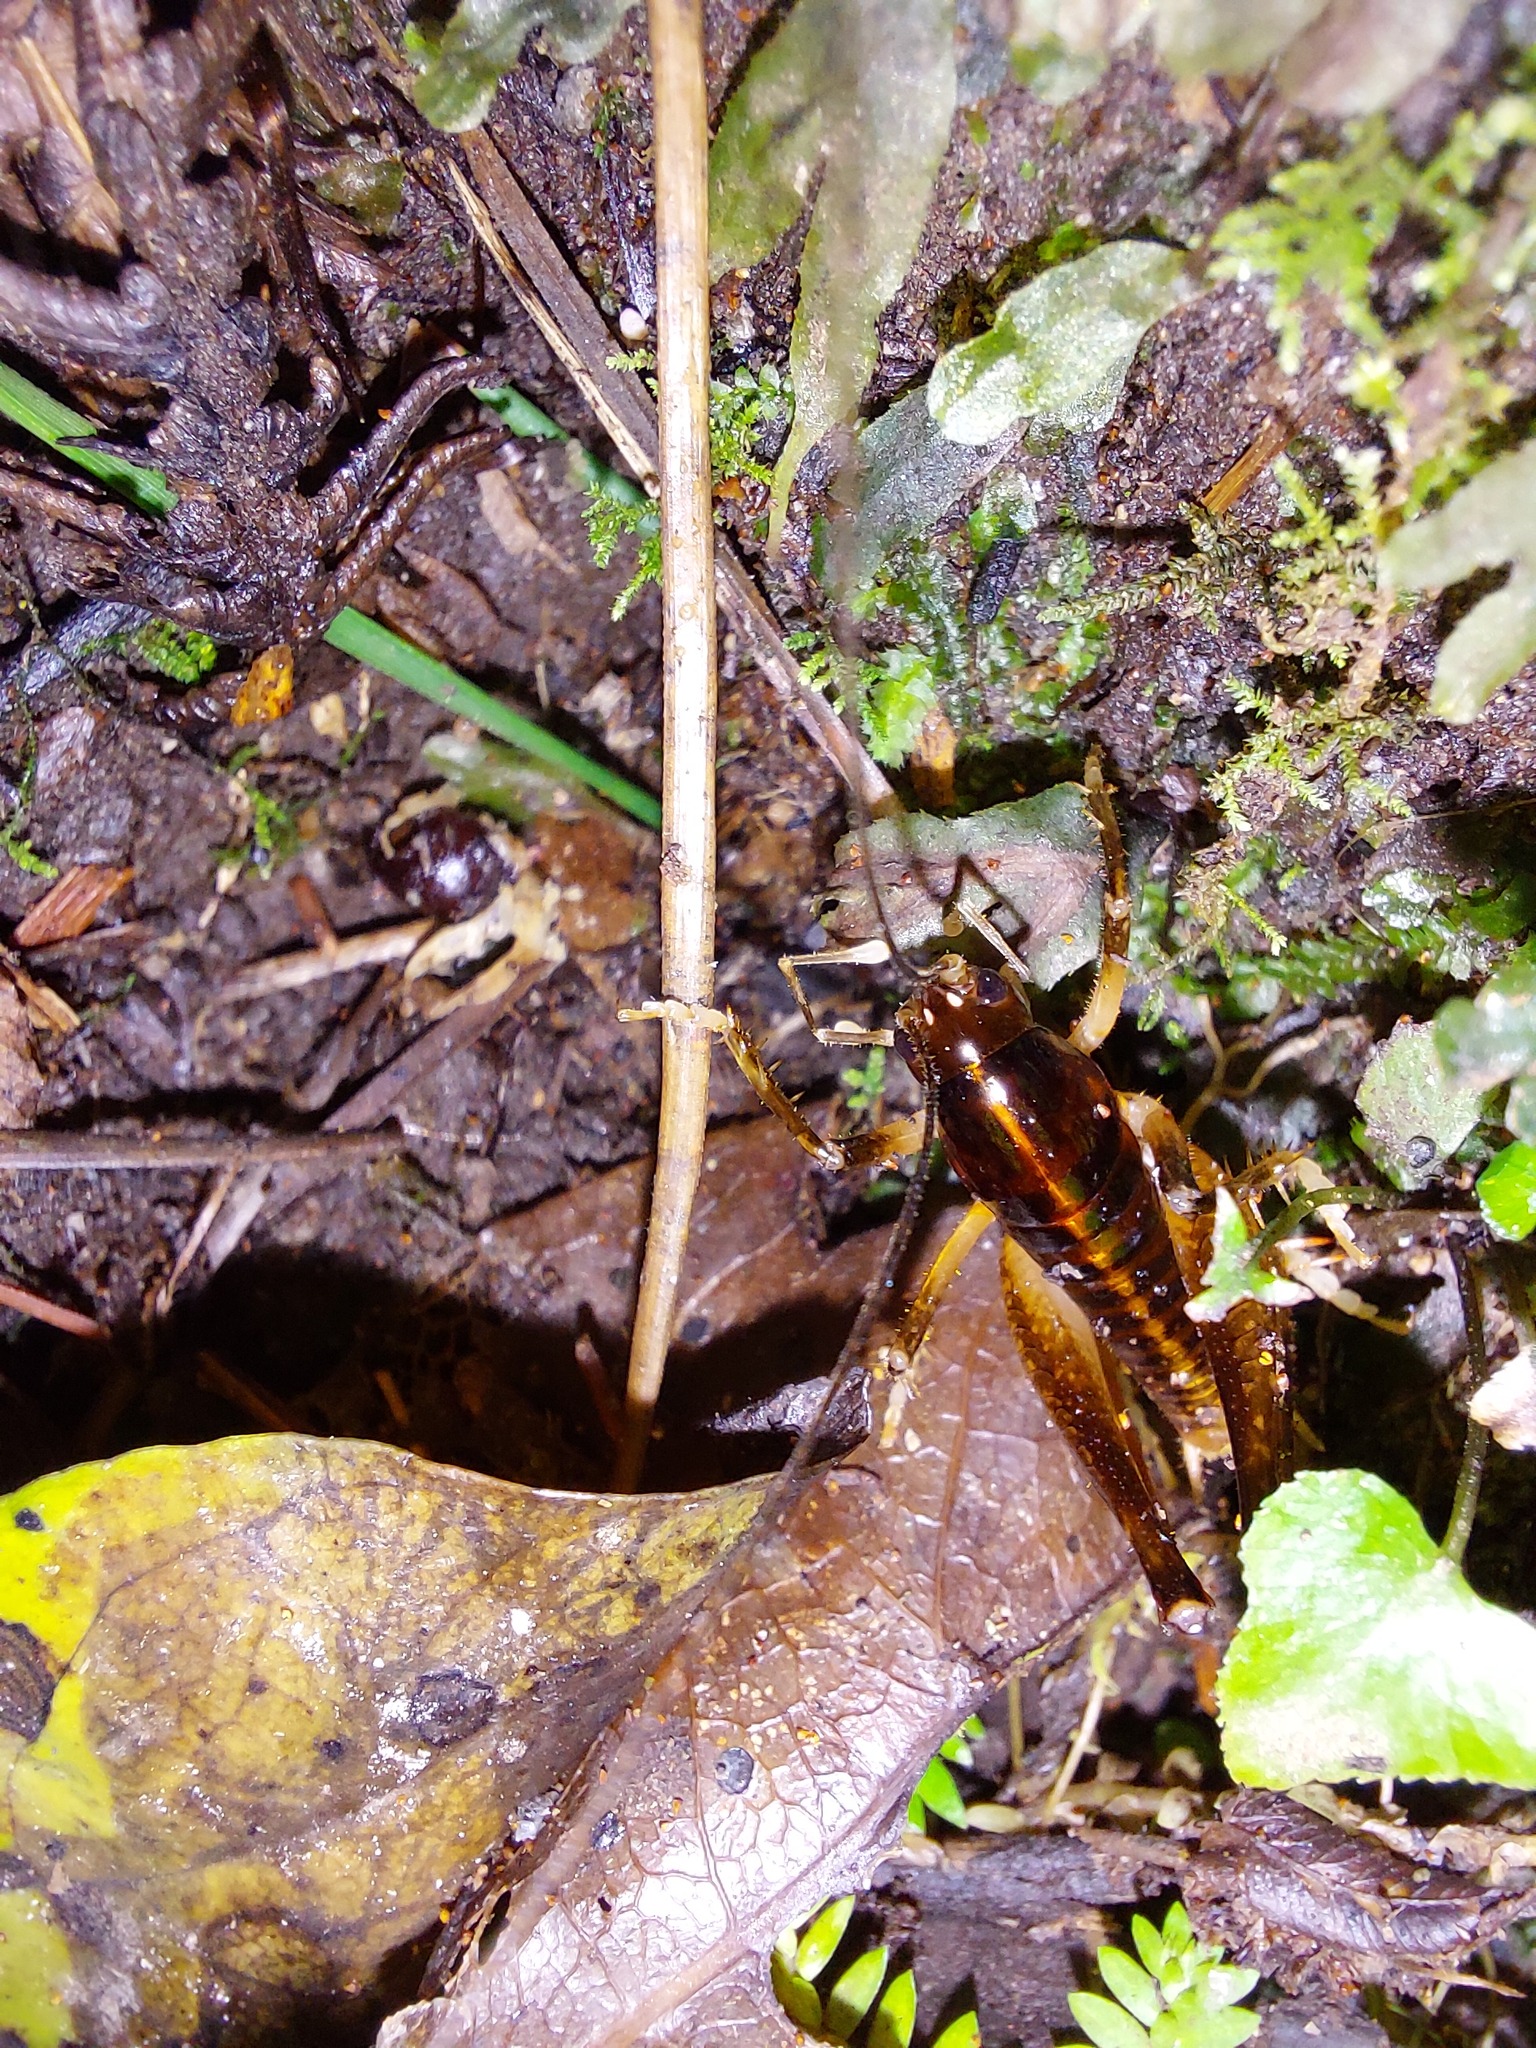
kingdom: Animalia
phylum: Arthropoda
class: Insecta
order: Orthoptera
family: Anostostomatidae
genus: Hemiandrus
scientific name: Hemiandrus brucei
